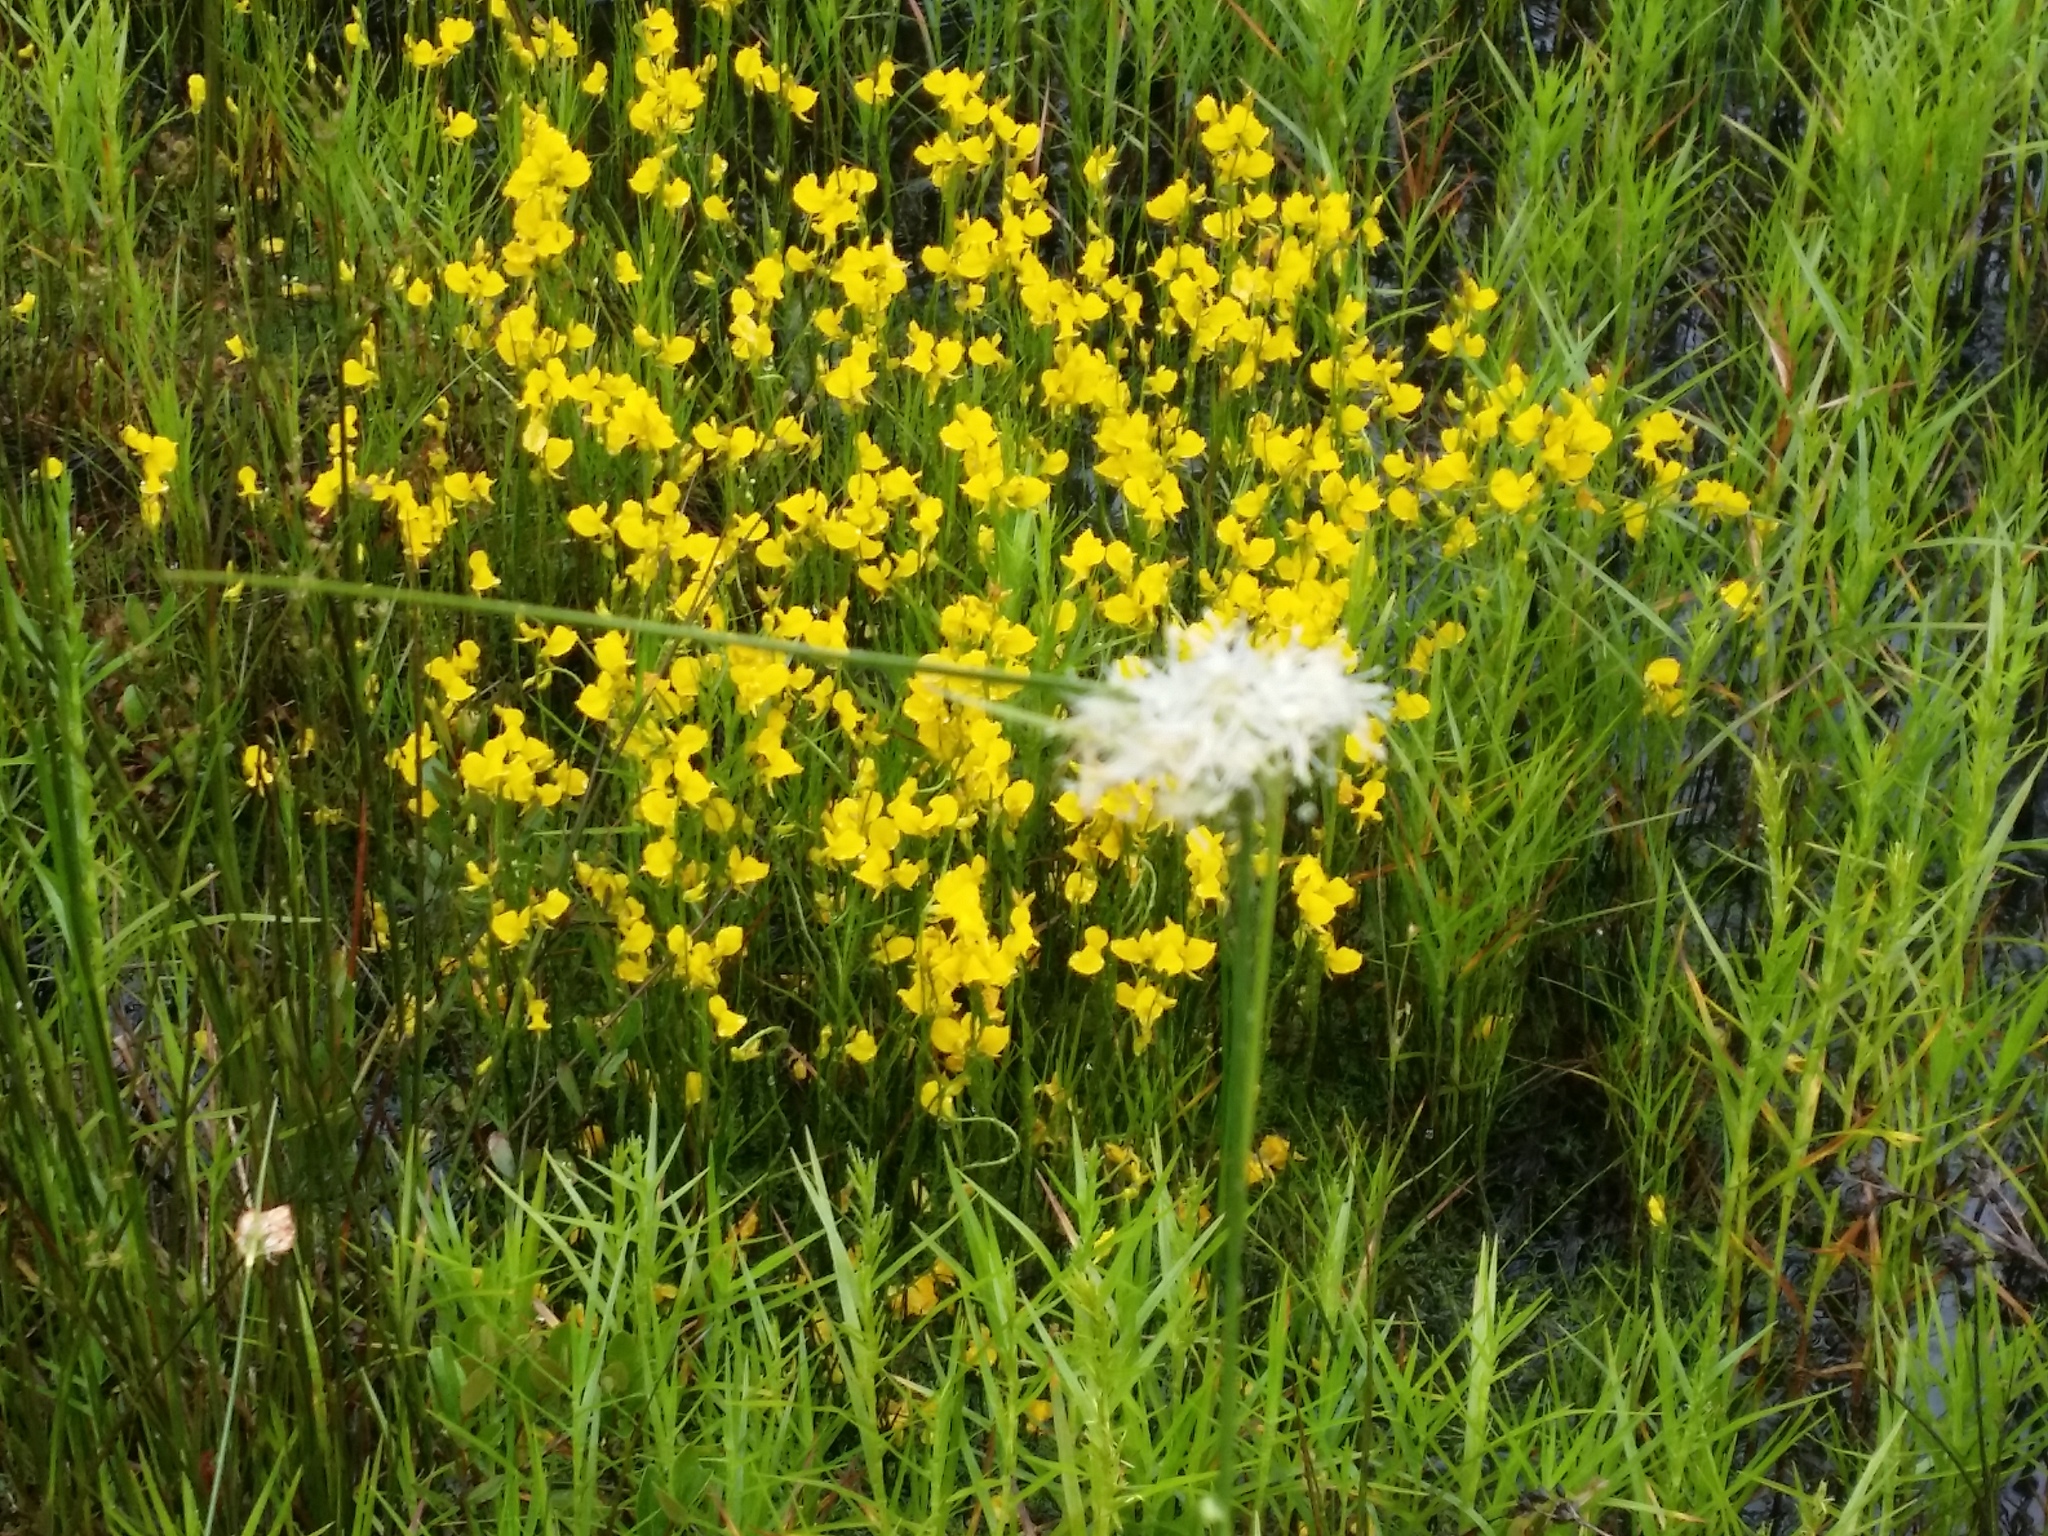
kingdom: Plantae
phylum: Tracheophyta
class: Magnoliopsida
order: Lamiales
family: Lentibulariaceae
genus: Utricularia
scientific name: Utricularia cornuta
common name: Horned bladderwort
